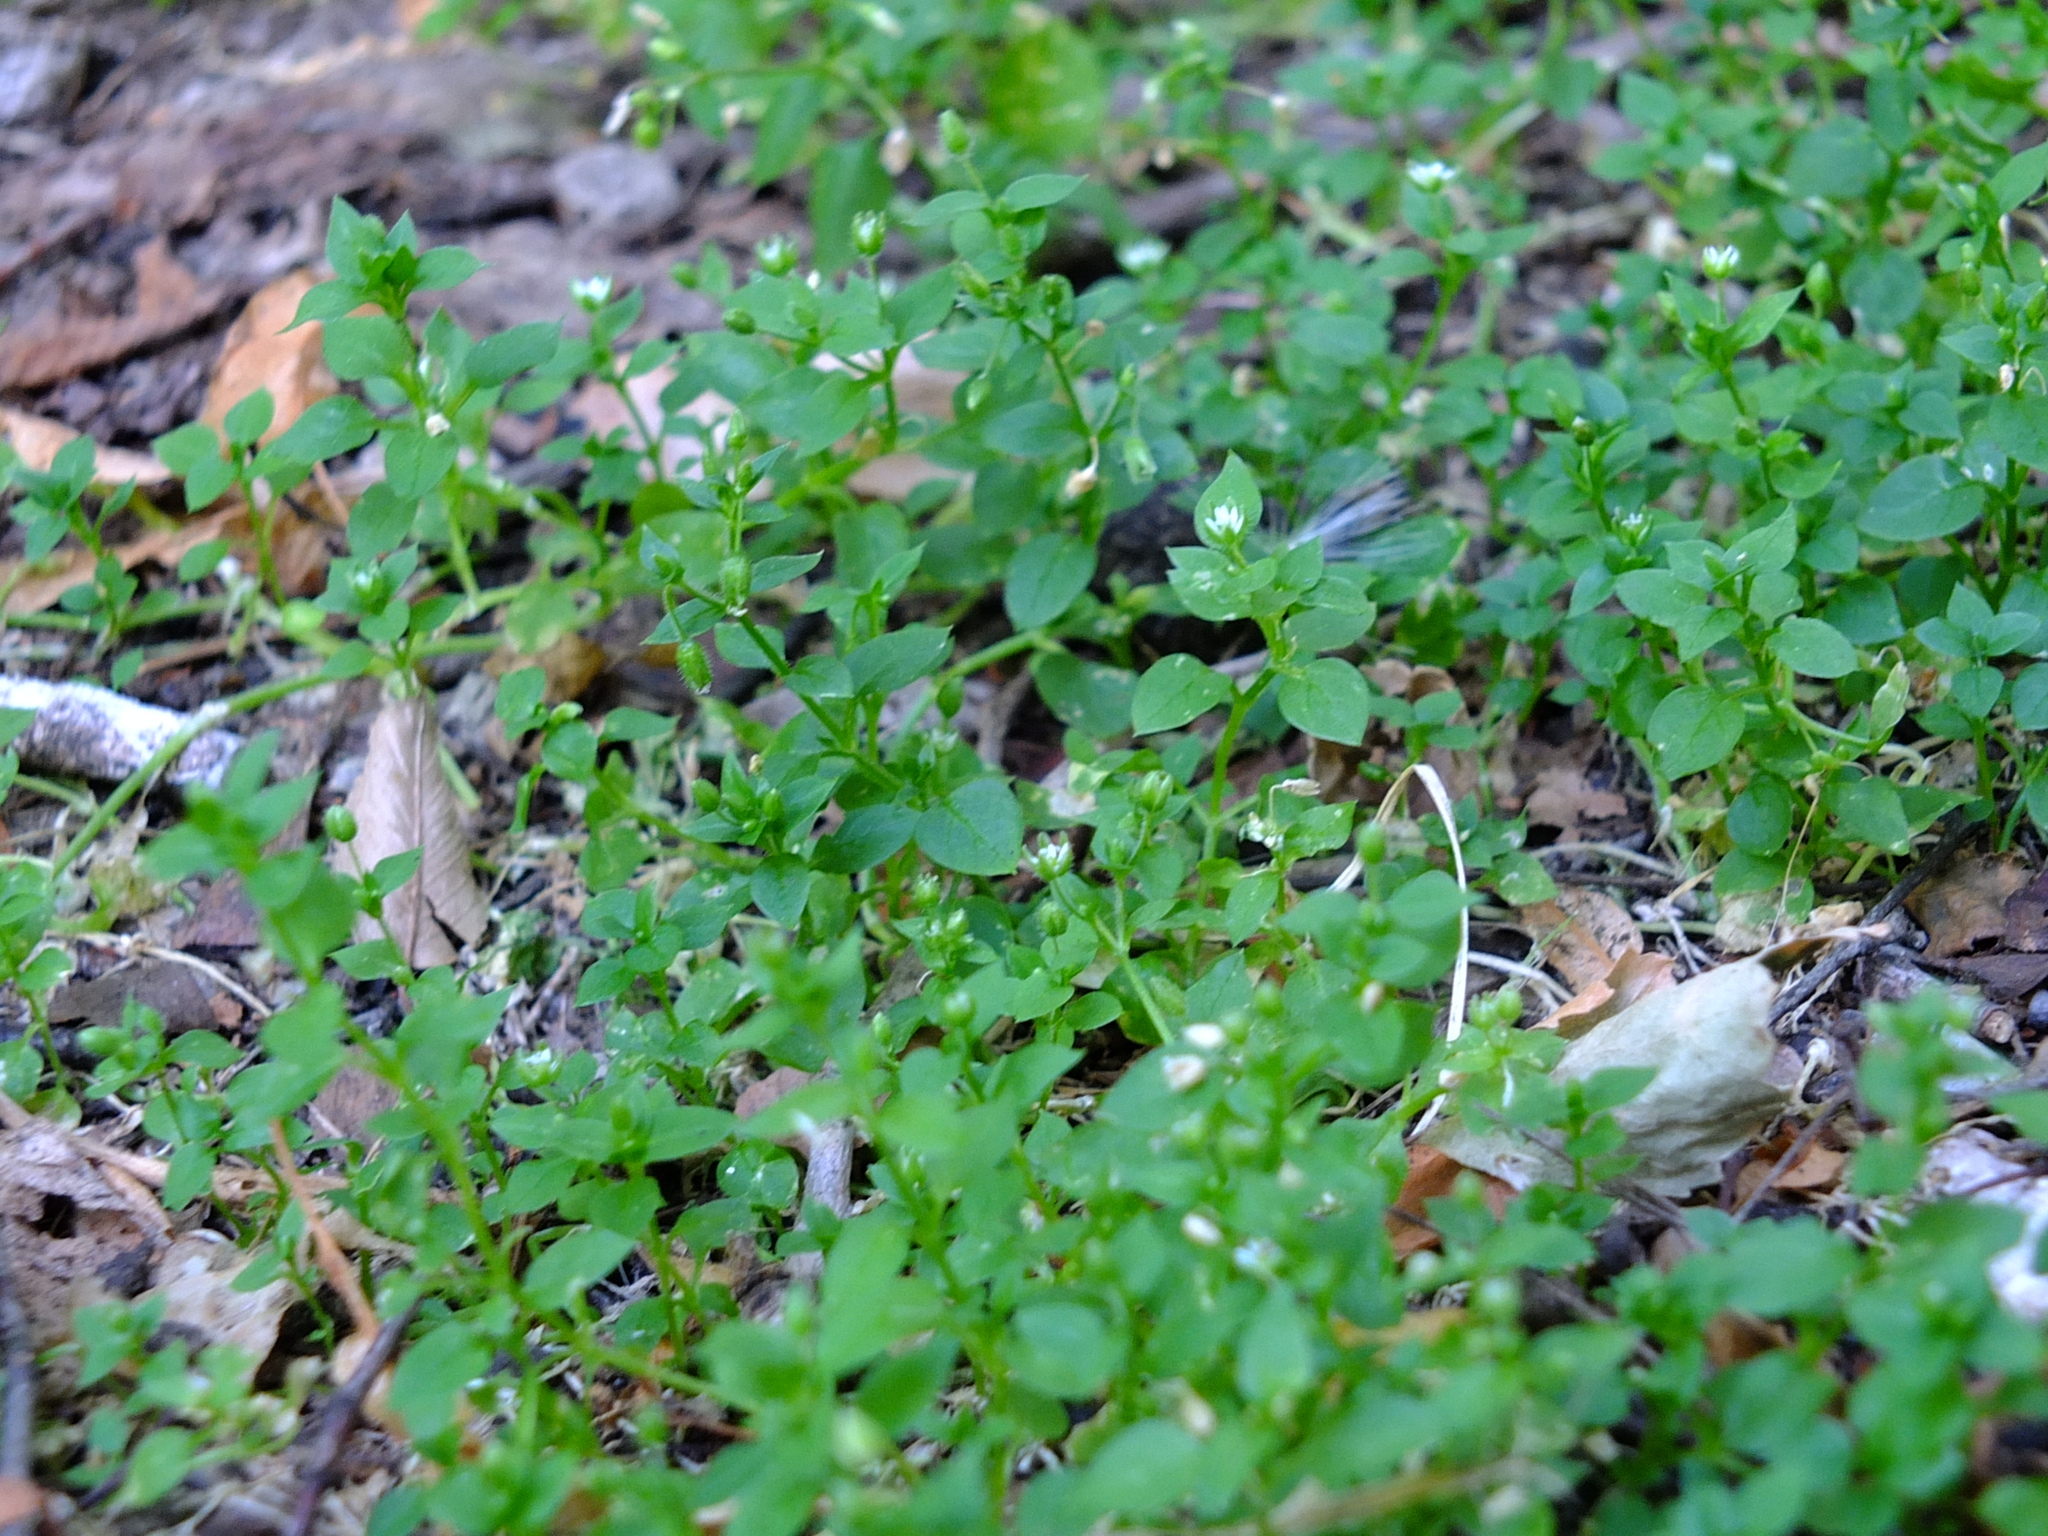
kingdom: Plantae
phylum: Tracheophyta
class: Magnoliopsida
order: Caryophyllales
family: Caryophyllaceae
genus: Stellaria
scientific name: Stellaria media
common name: Common chickweed
